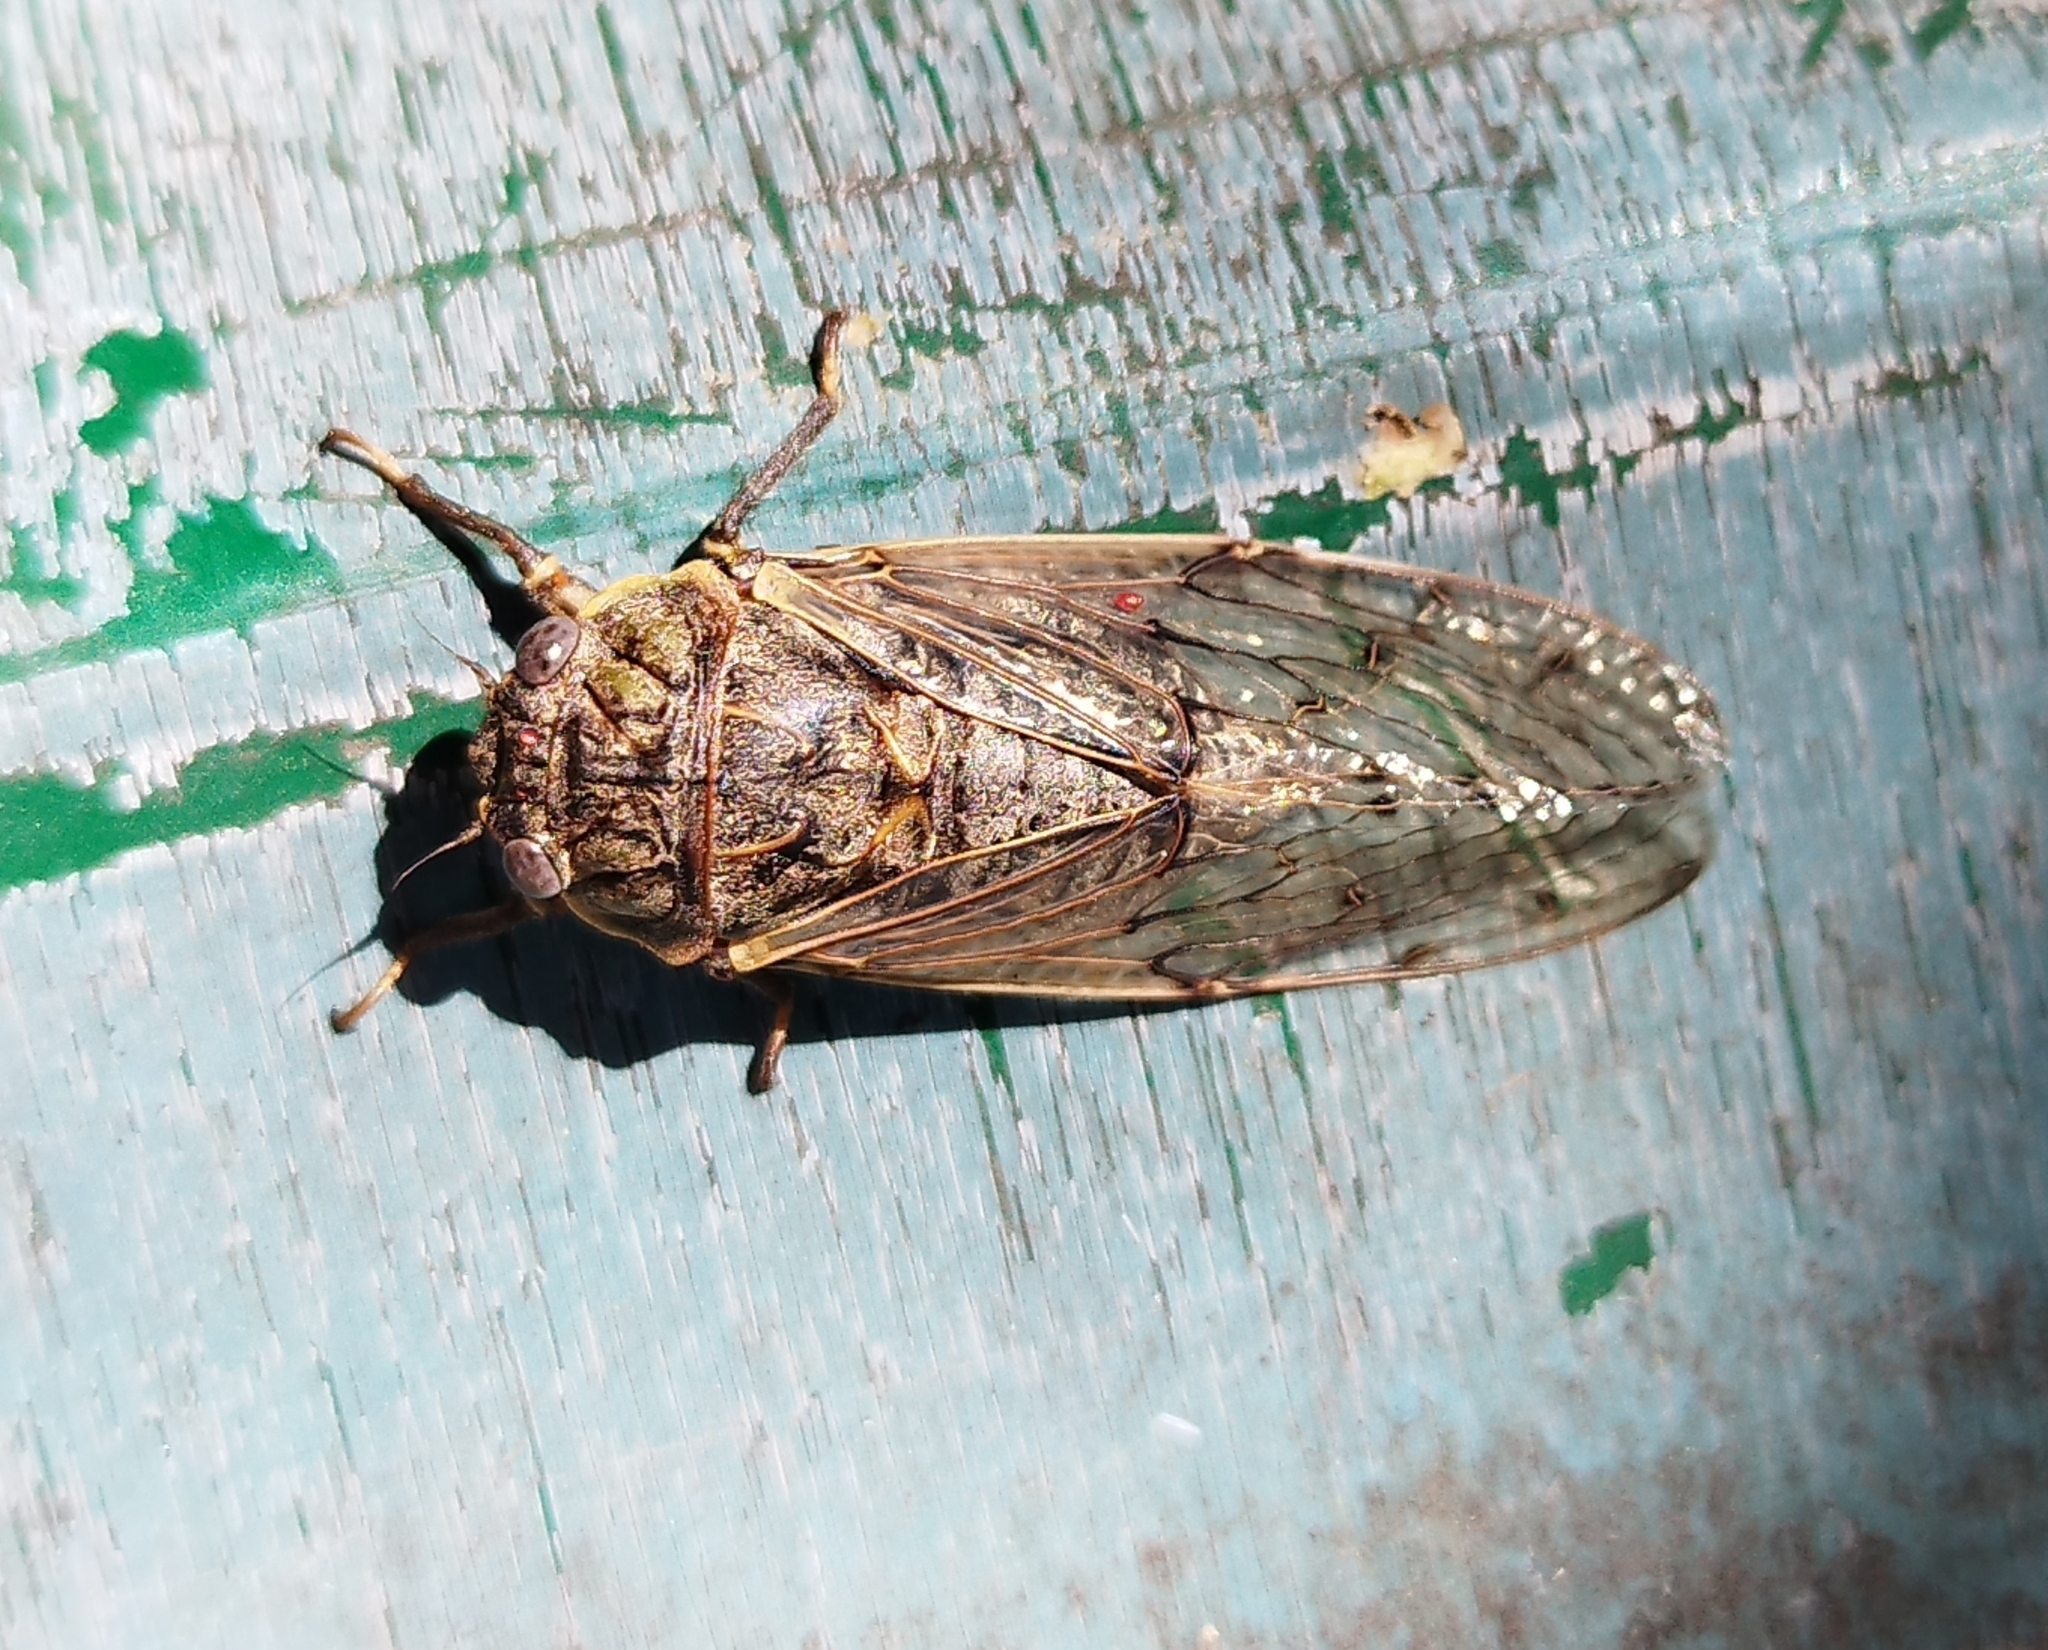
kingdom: Animalia
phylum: Arthropoda
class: Insecta
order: Hemiptera
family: Cicadidae
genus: Proarna
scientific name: Proarna bufo
